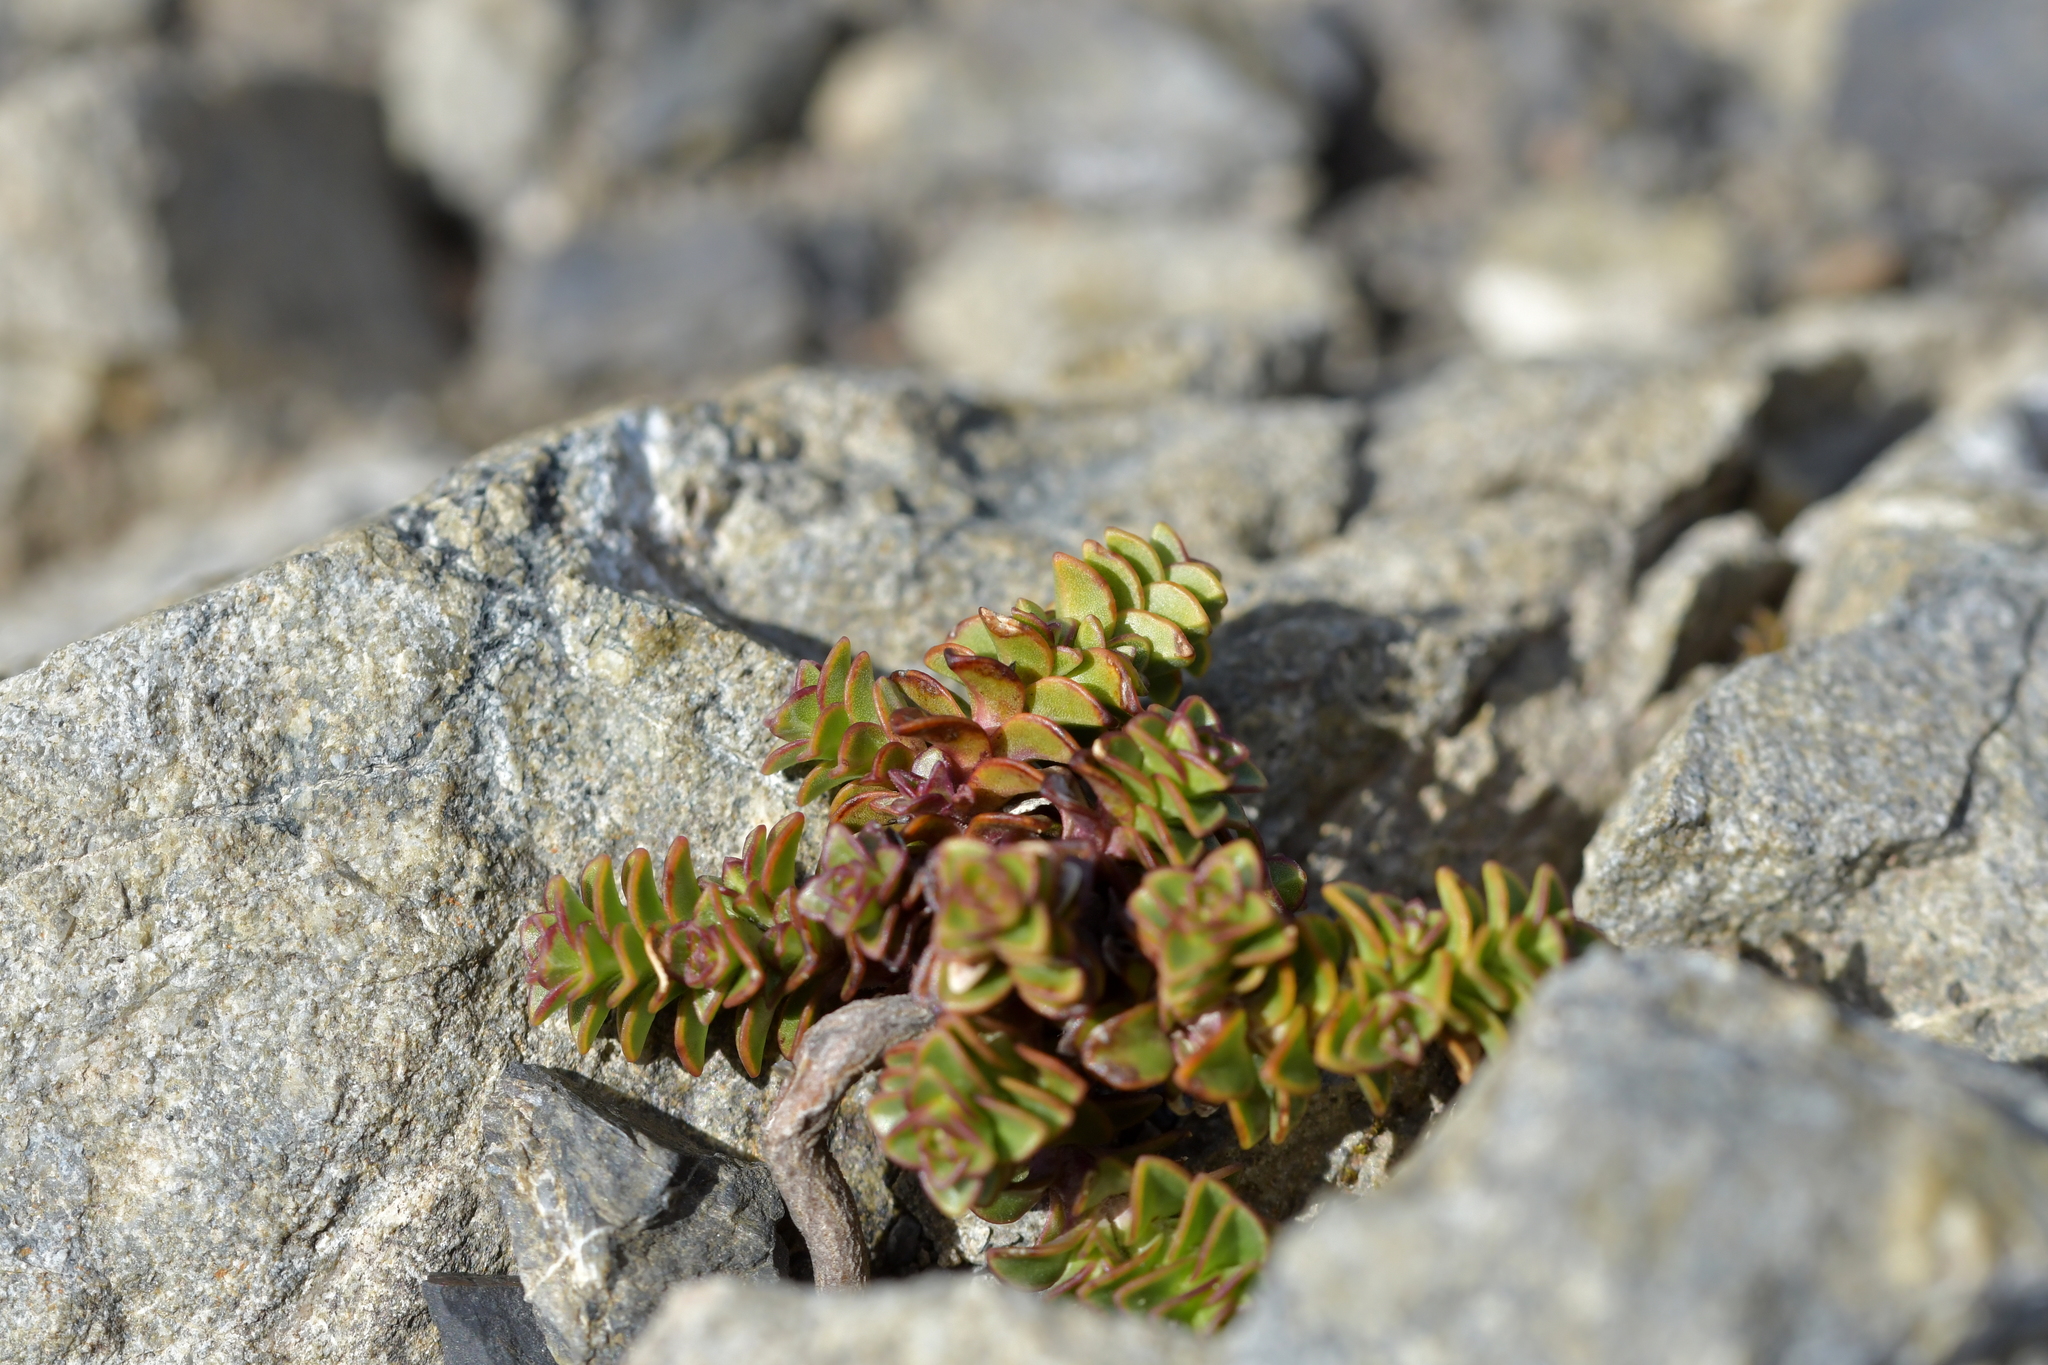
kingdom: Plantae
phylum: Tracheophyta
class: Magnoliopsida
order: Lamiales
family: Plantaginaceae
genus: Veronica
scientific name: Veronica epacridea
